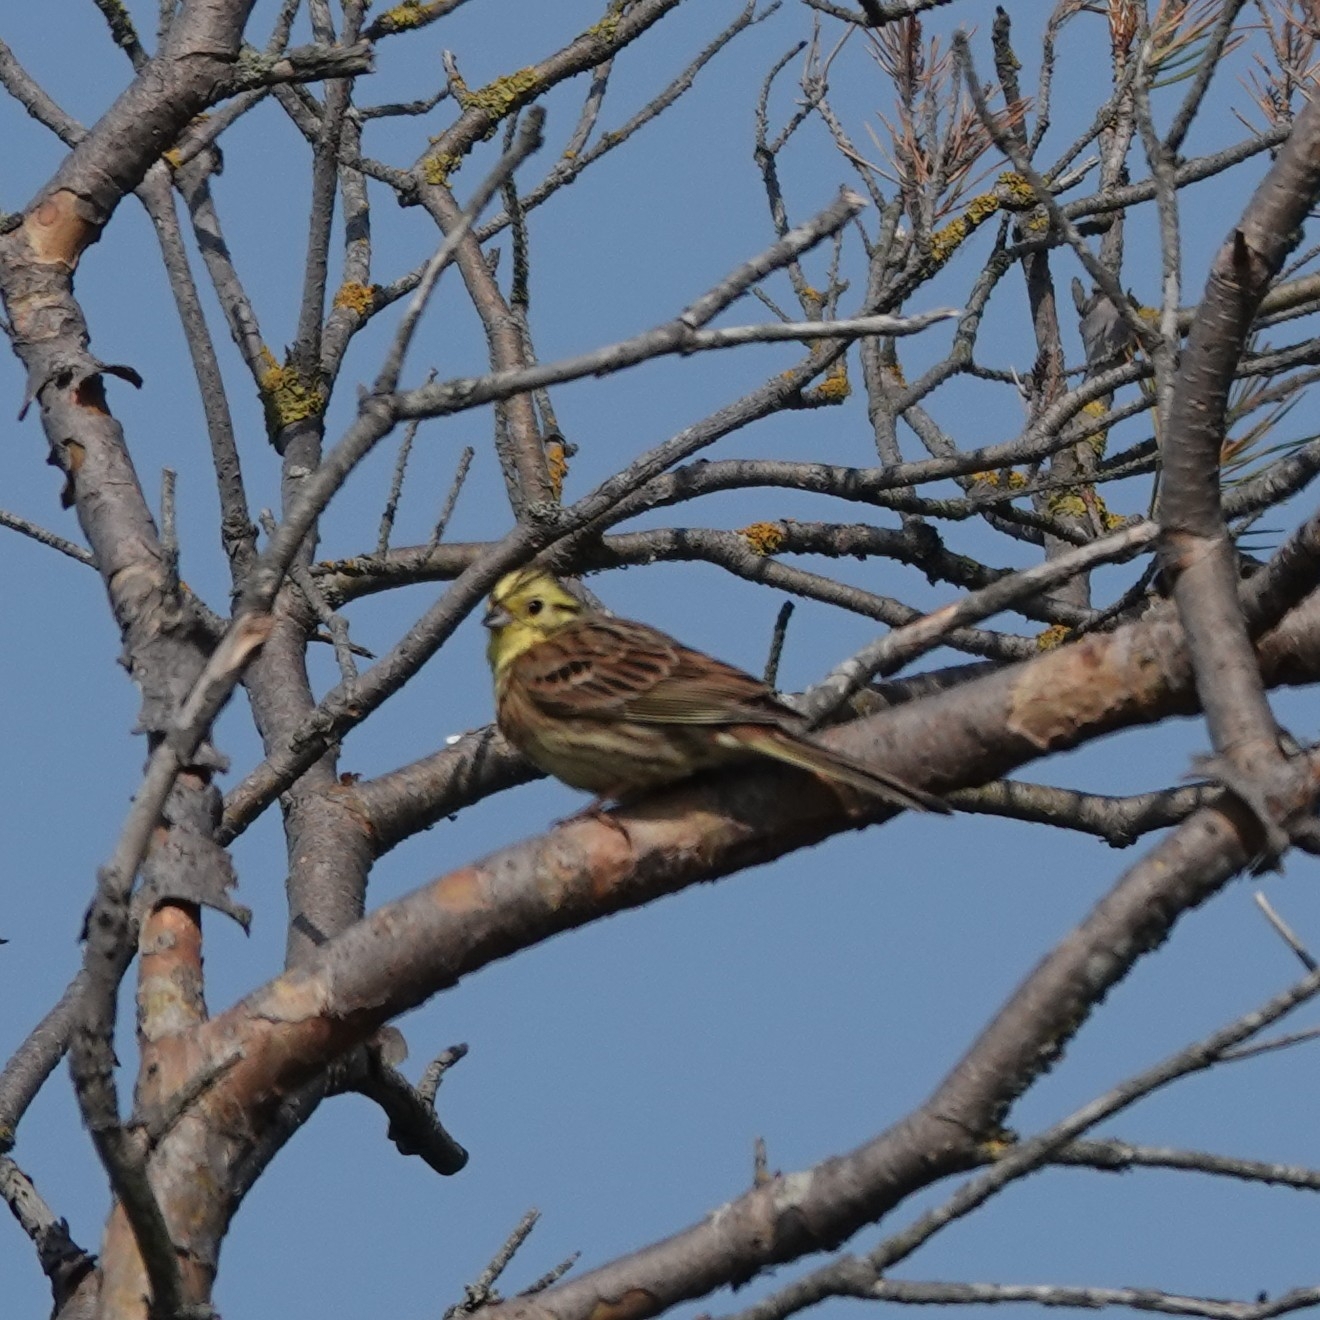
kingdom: Animalia
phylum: Chordata
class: Aves
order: Passeriformes
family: Emberizidae
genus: Emberiza
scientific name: Emberiza citrinella
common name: Yellowhammer
